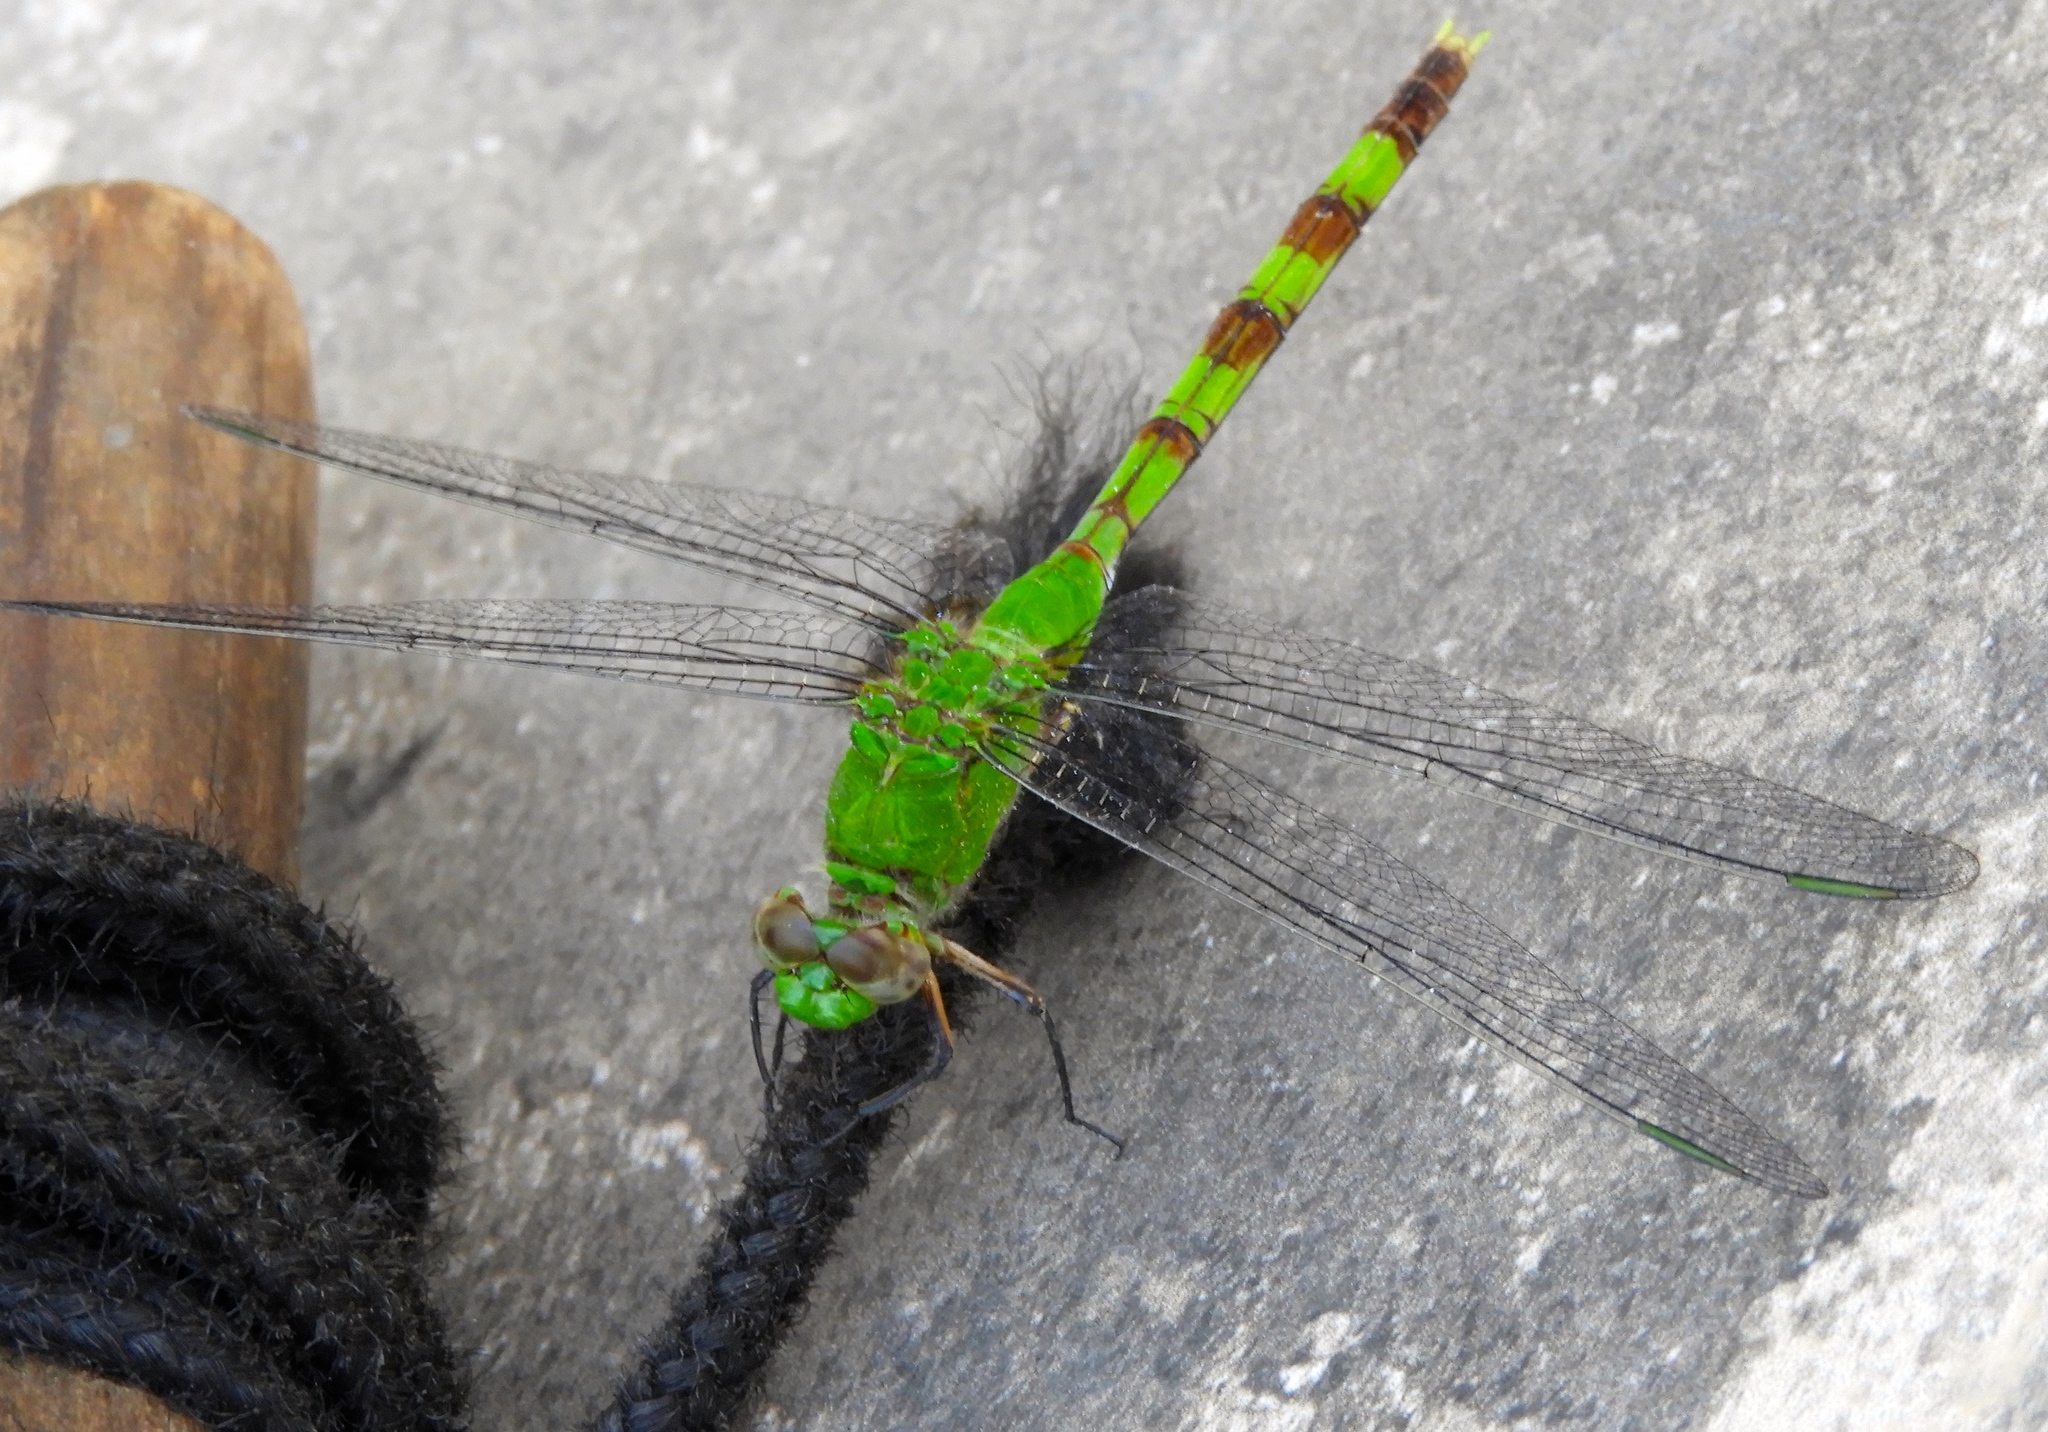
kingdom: Animalia
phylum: Arthropoda
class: Insecta
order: Odonata
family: Libellulidae
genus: Erythemis
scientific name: Erythemis vesiculosa
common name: Great pondhawk
